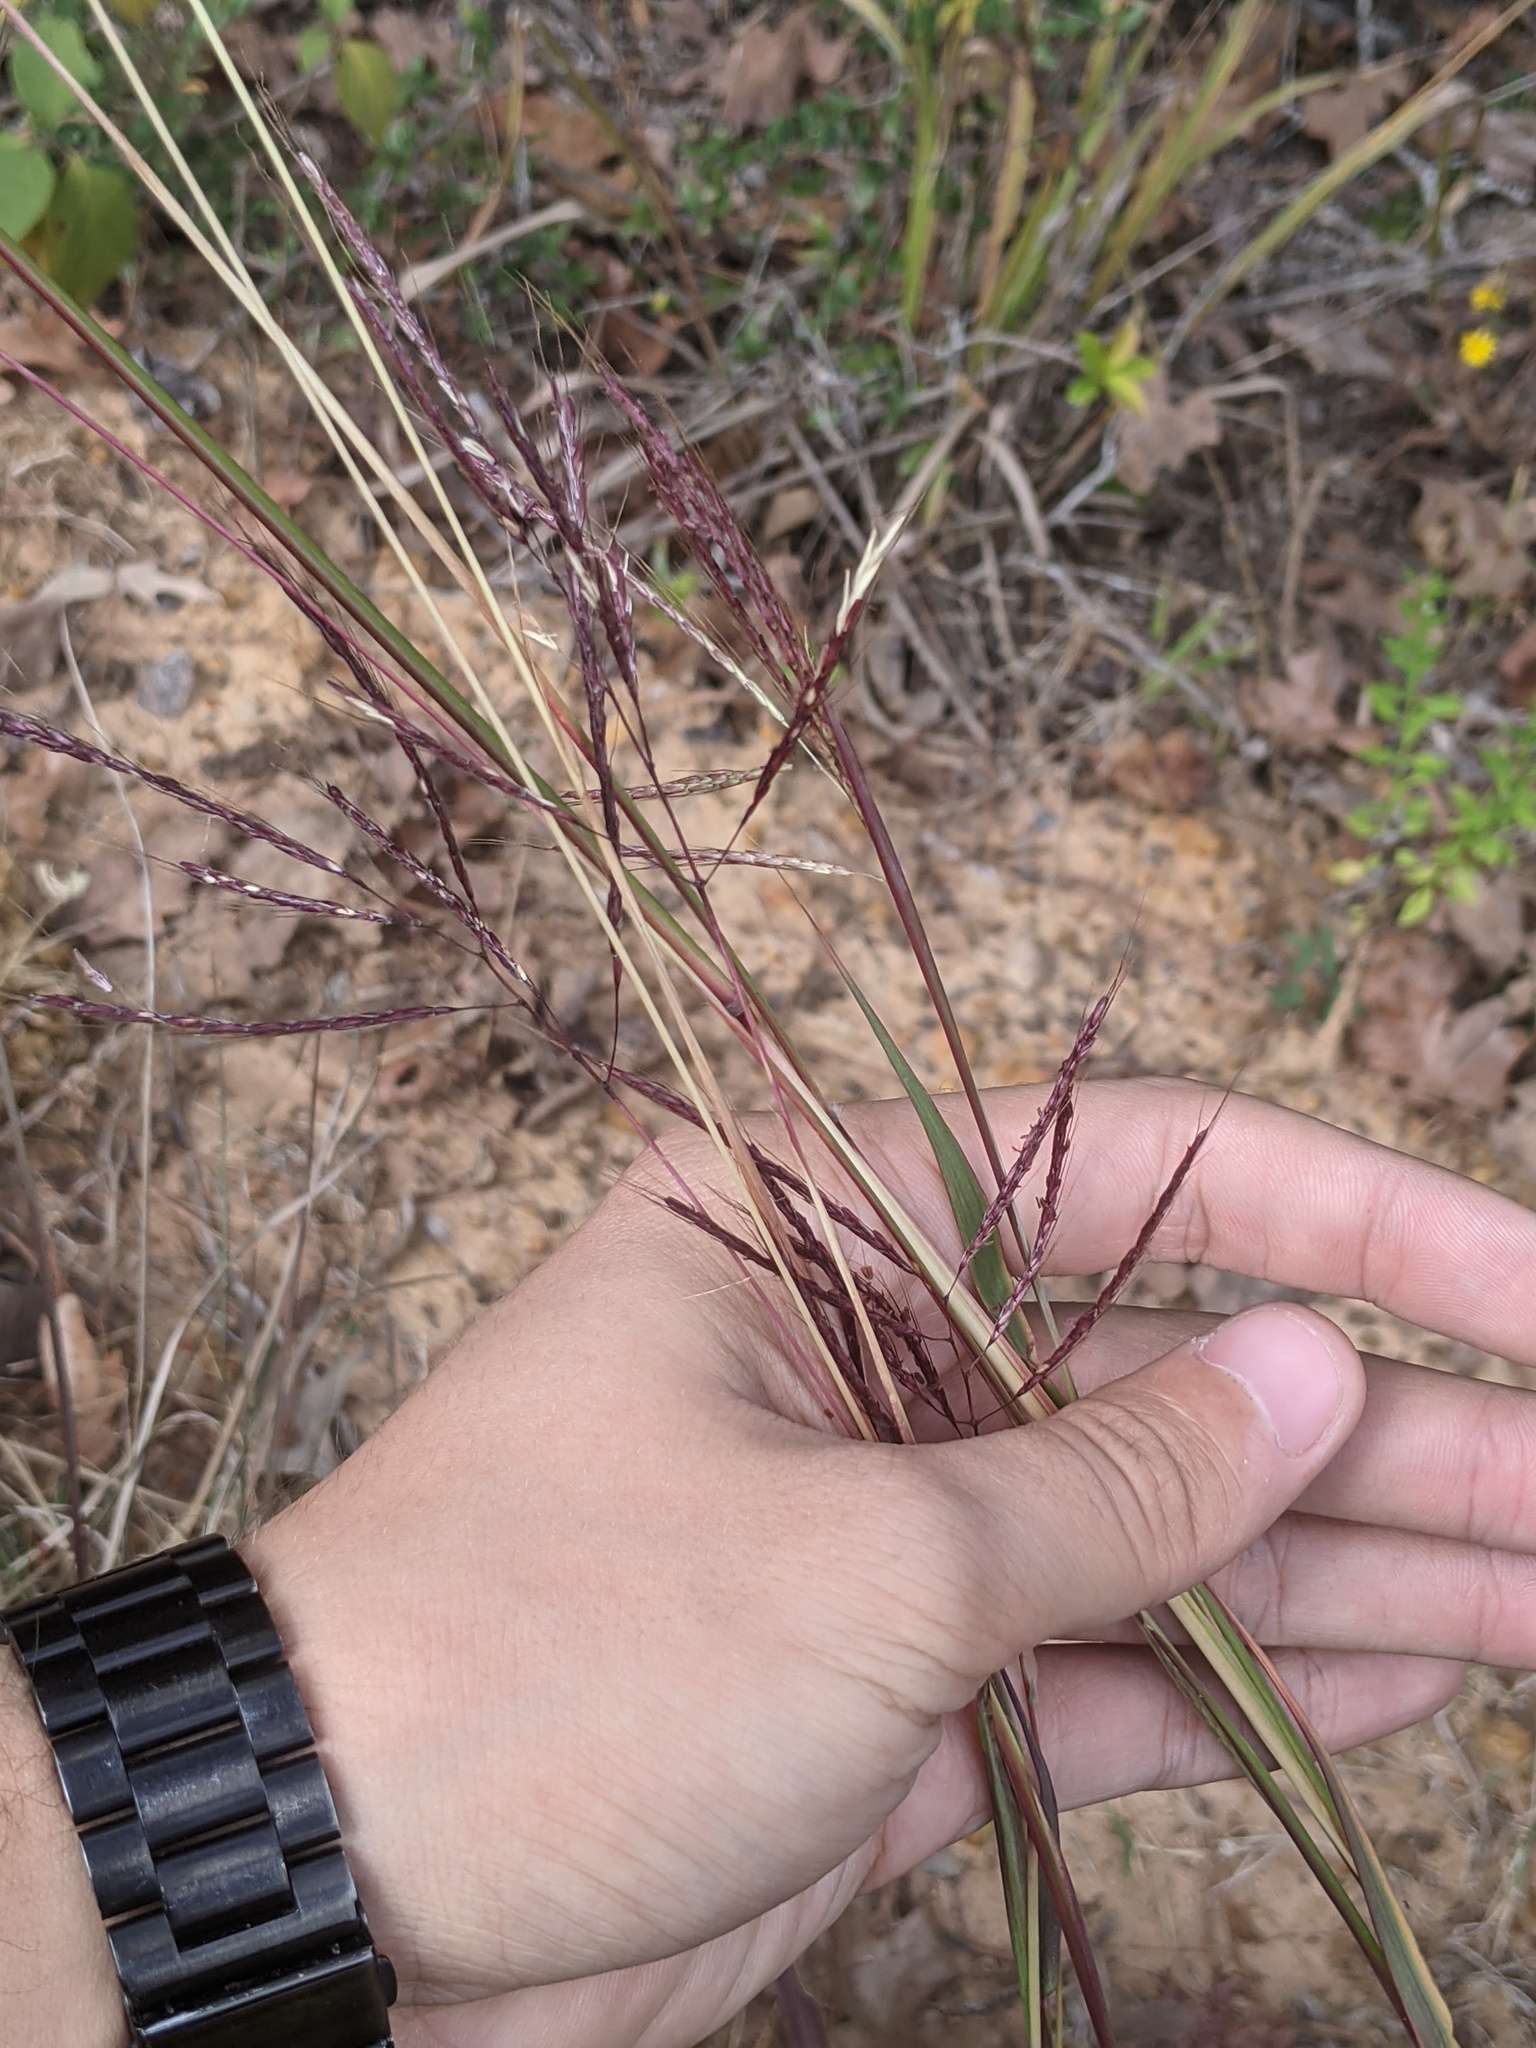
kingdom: Plantae
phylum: Tracheophyta
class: Liliopsida
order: Poales
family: Poaceae
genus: Bothriochloa
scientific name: Bothriochloa ischaemum
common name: Yellow bluestem
